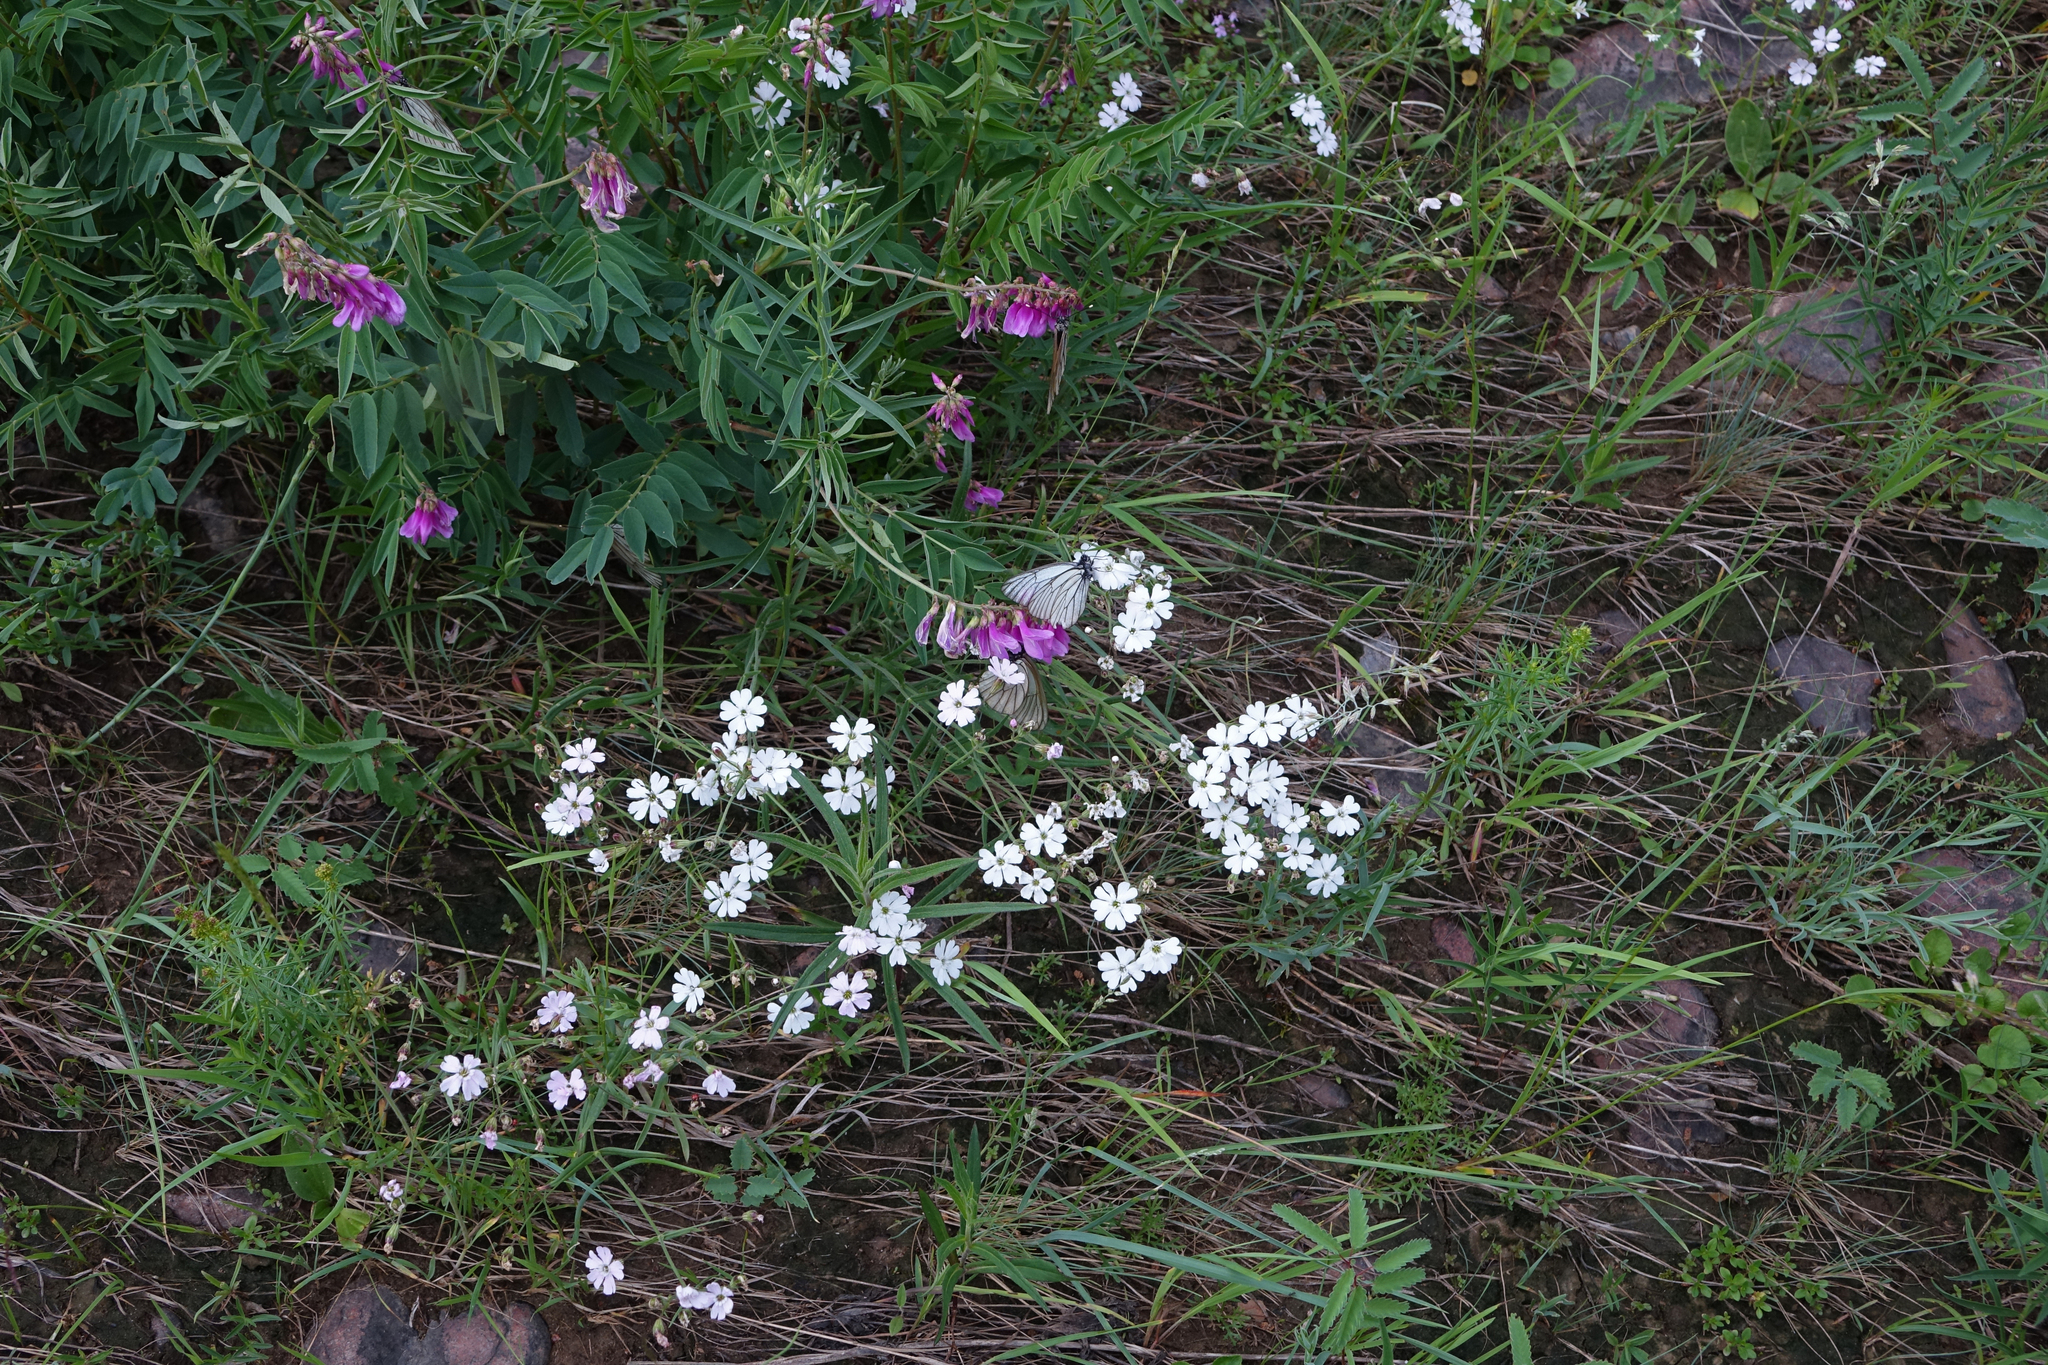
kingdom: Plantae
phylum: Tracheophyta
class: Magnoliopsida
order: Caryophyllales
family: Caryophyllaceae
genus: Silene
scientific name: Silene orientalimongolica
